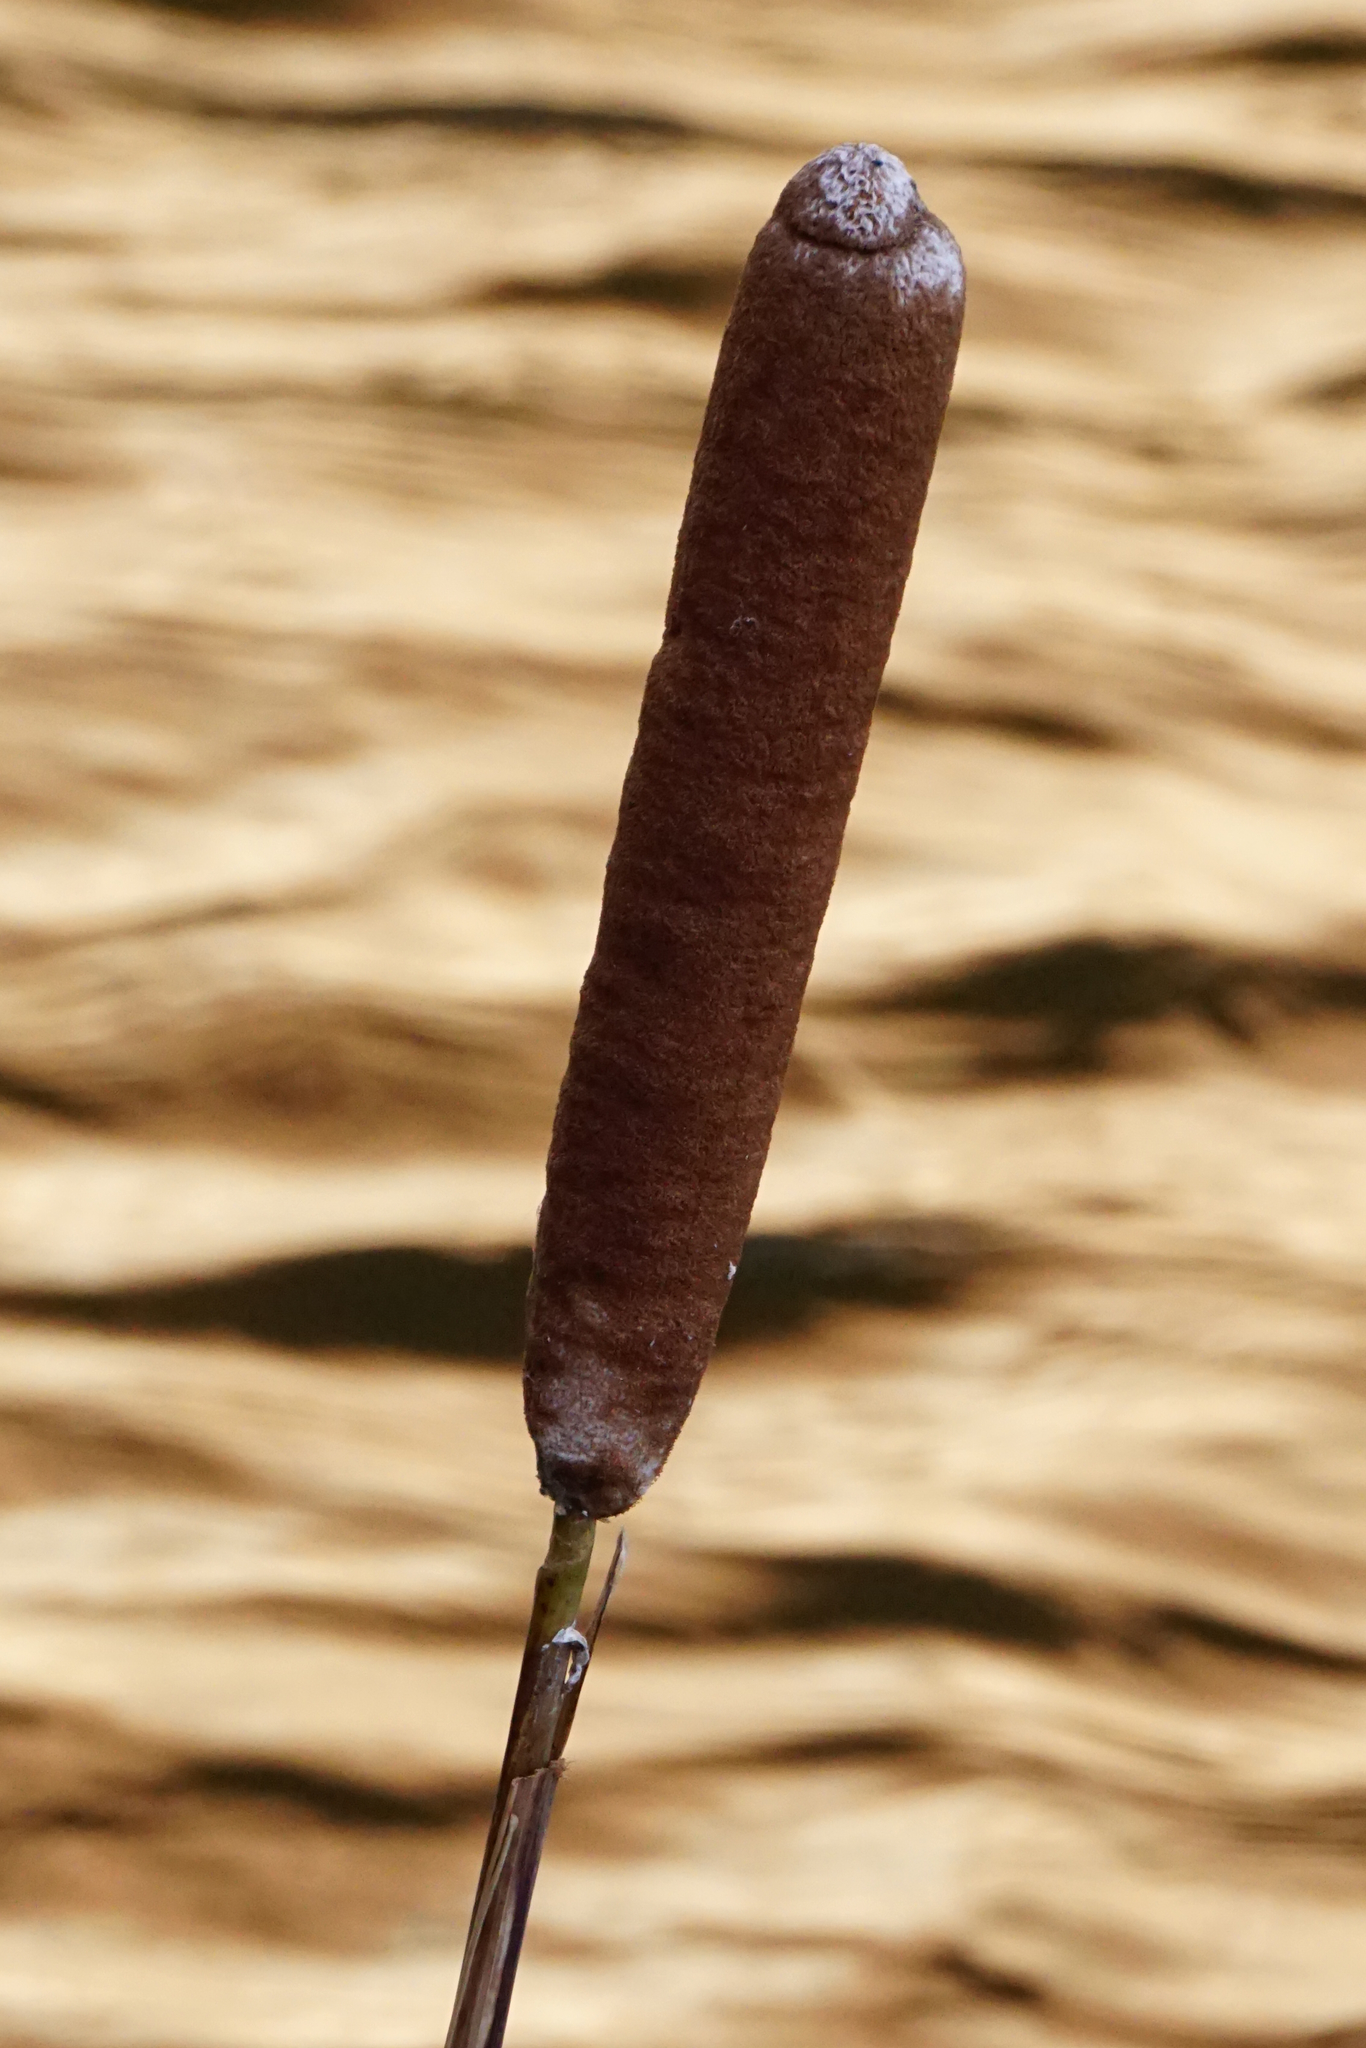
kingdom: Plantae
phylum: Tracheophyta
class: Liliopsida
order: Poales
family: Typhaceae
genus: Typha
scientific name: Typha latifolia
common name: Broadleaf cattail
